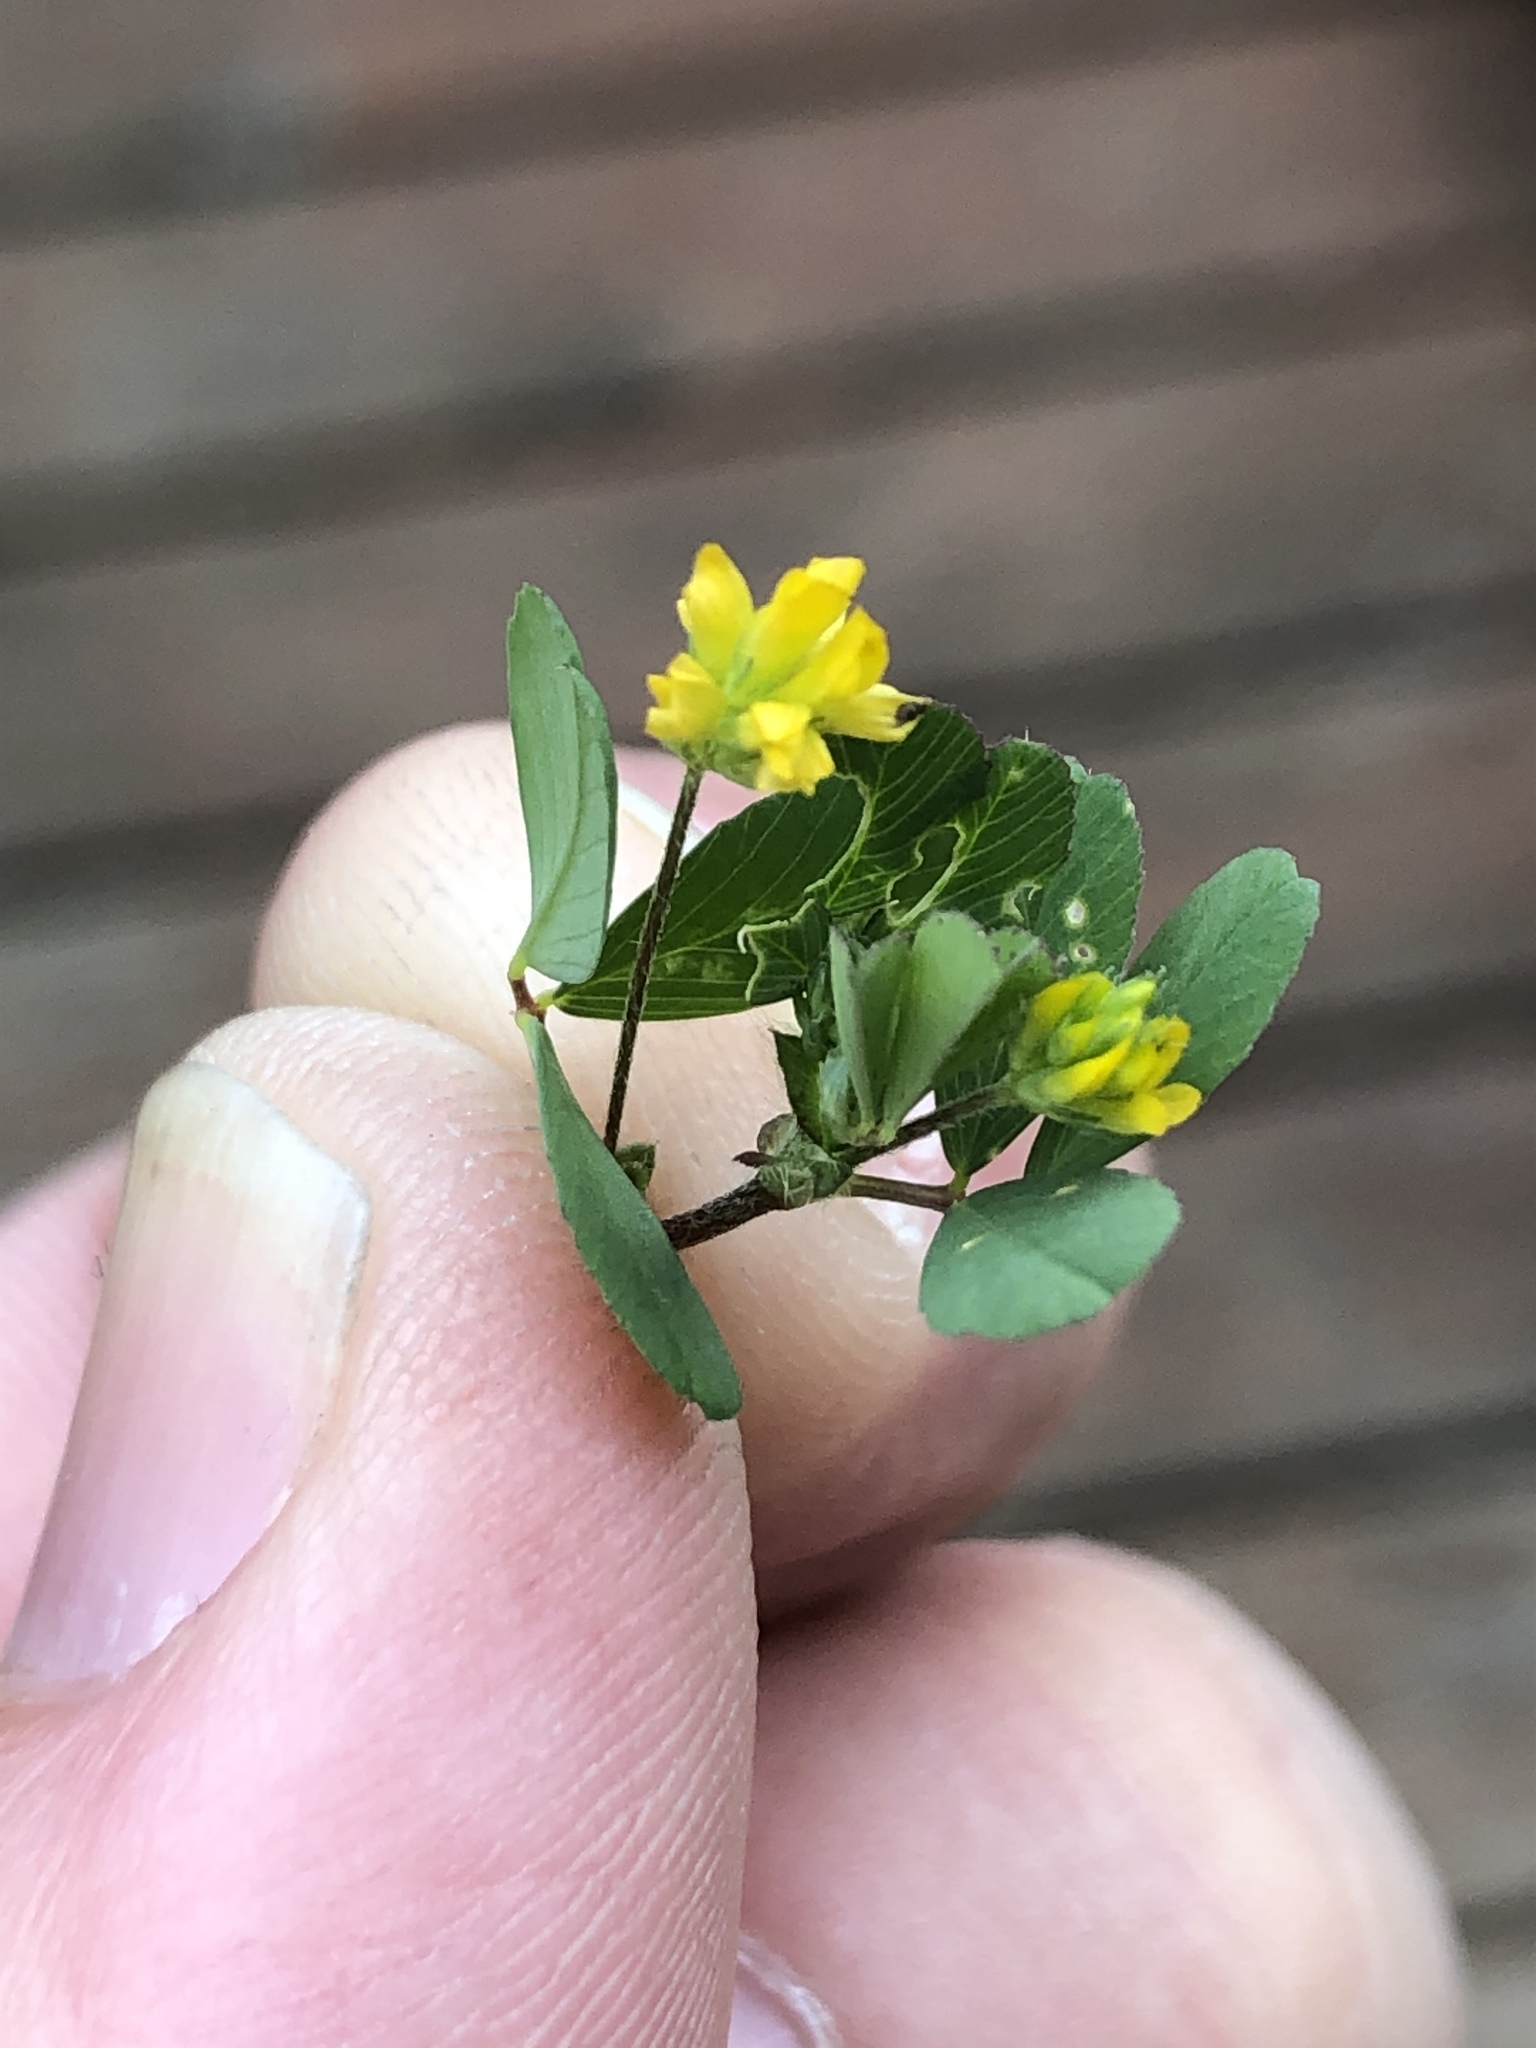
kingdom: Plantae
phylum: Tracheophyta
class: Magnoliopsida
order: Fabales
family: Fabaceae
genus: Trifolium
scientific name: Trifolium dubium
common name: Suckling clover
